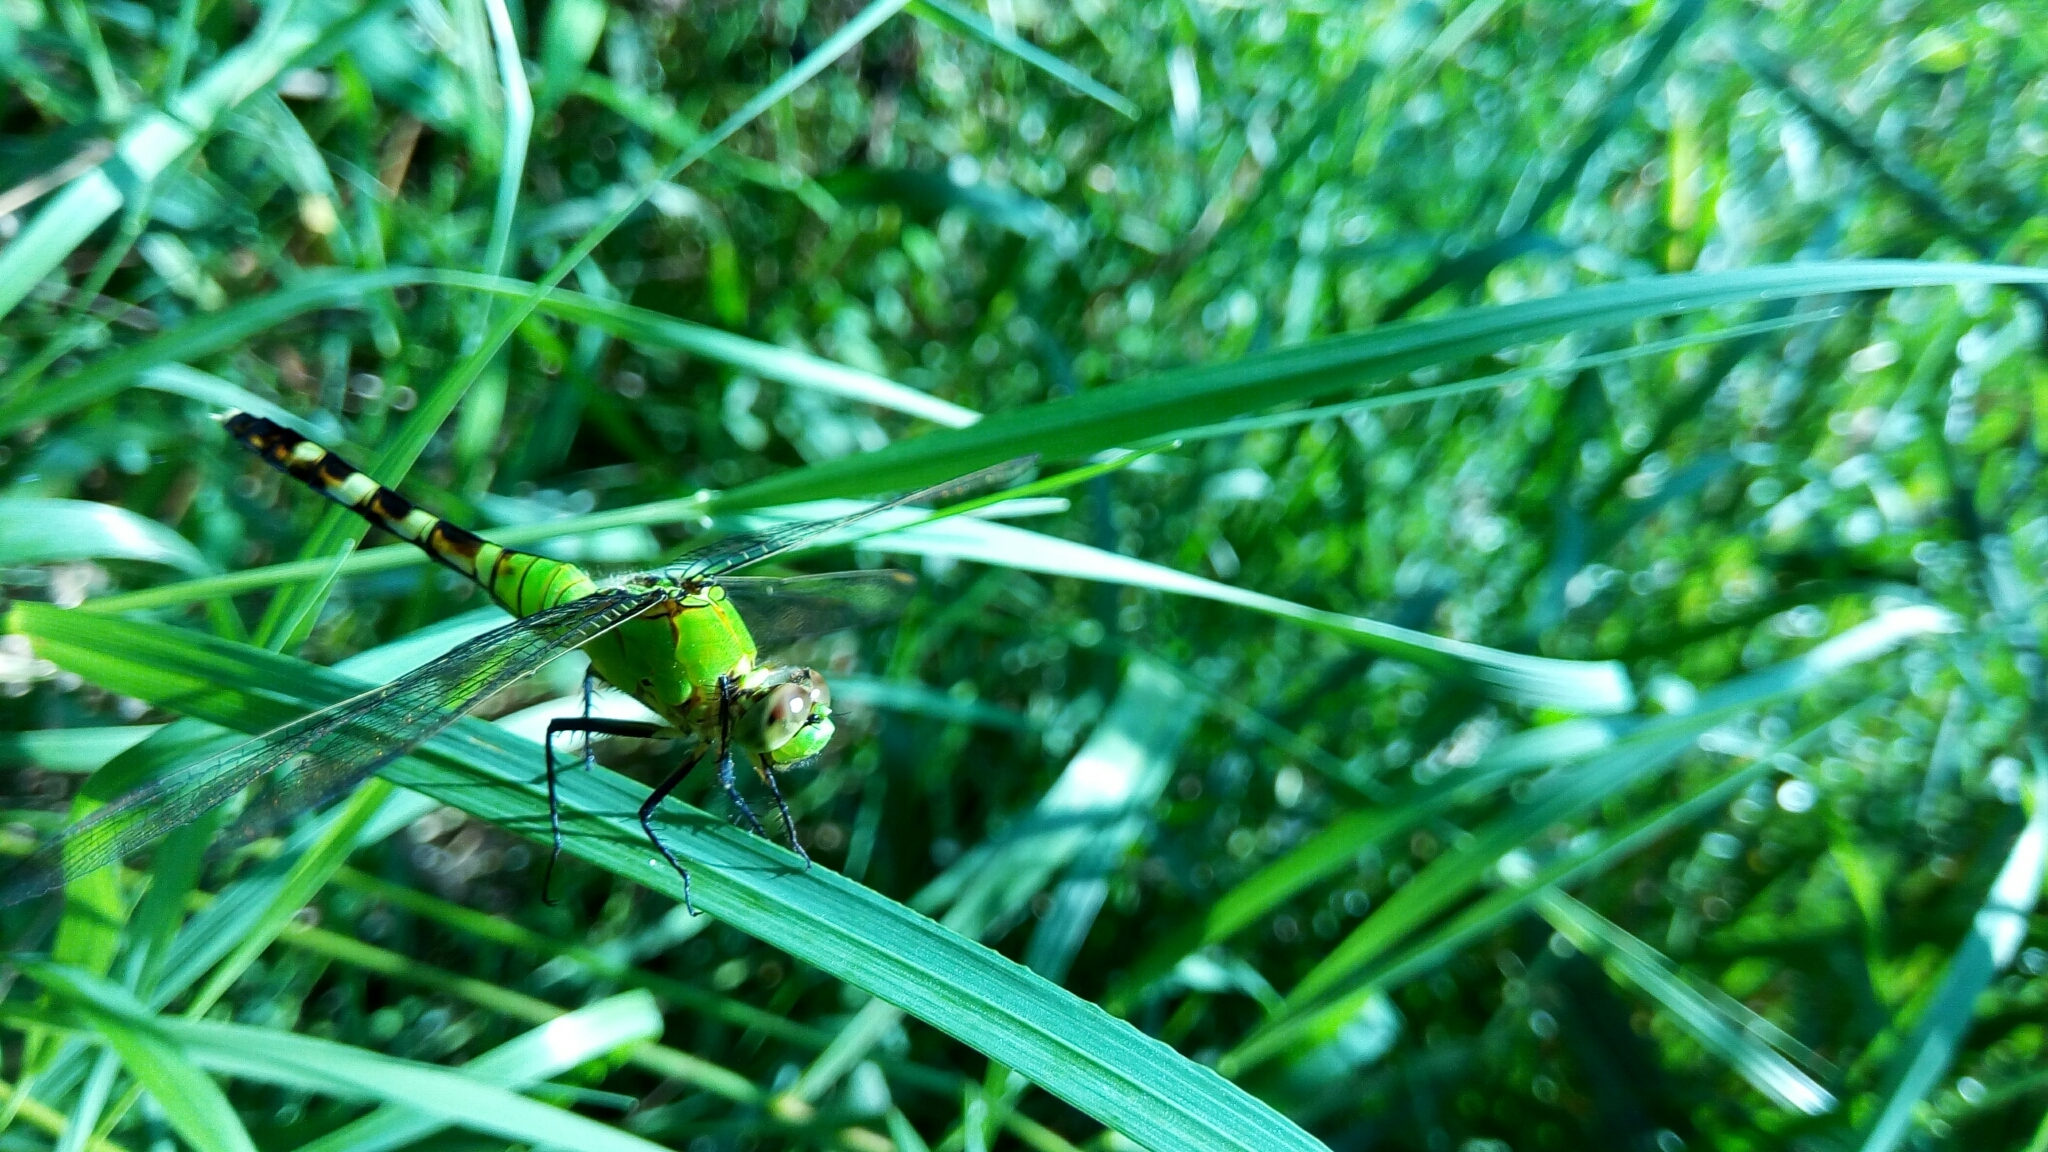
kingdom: Animalia
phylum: Arthropoda
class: Insecta
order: Odonata
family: Libellulidae
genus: Erythemis
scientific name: Erythemis simplicicollis
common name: Eastern pondhawk
